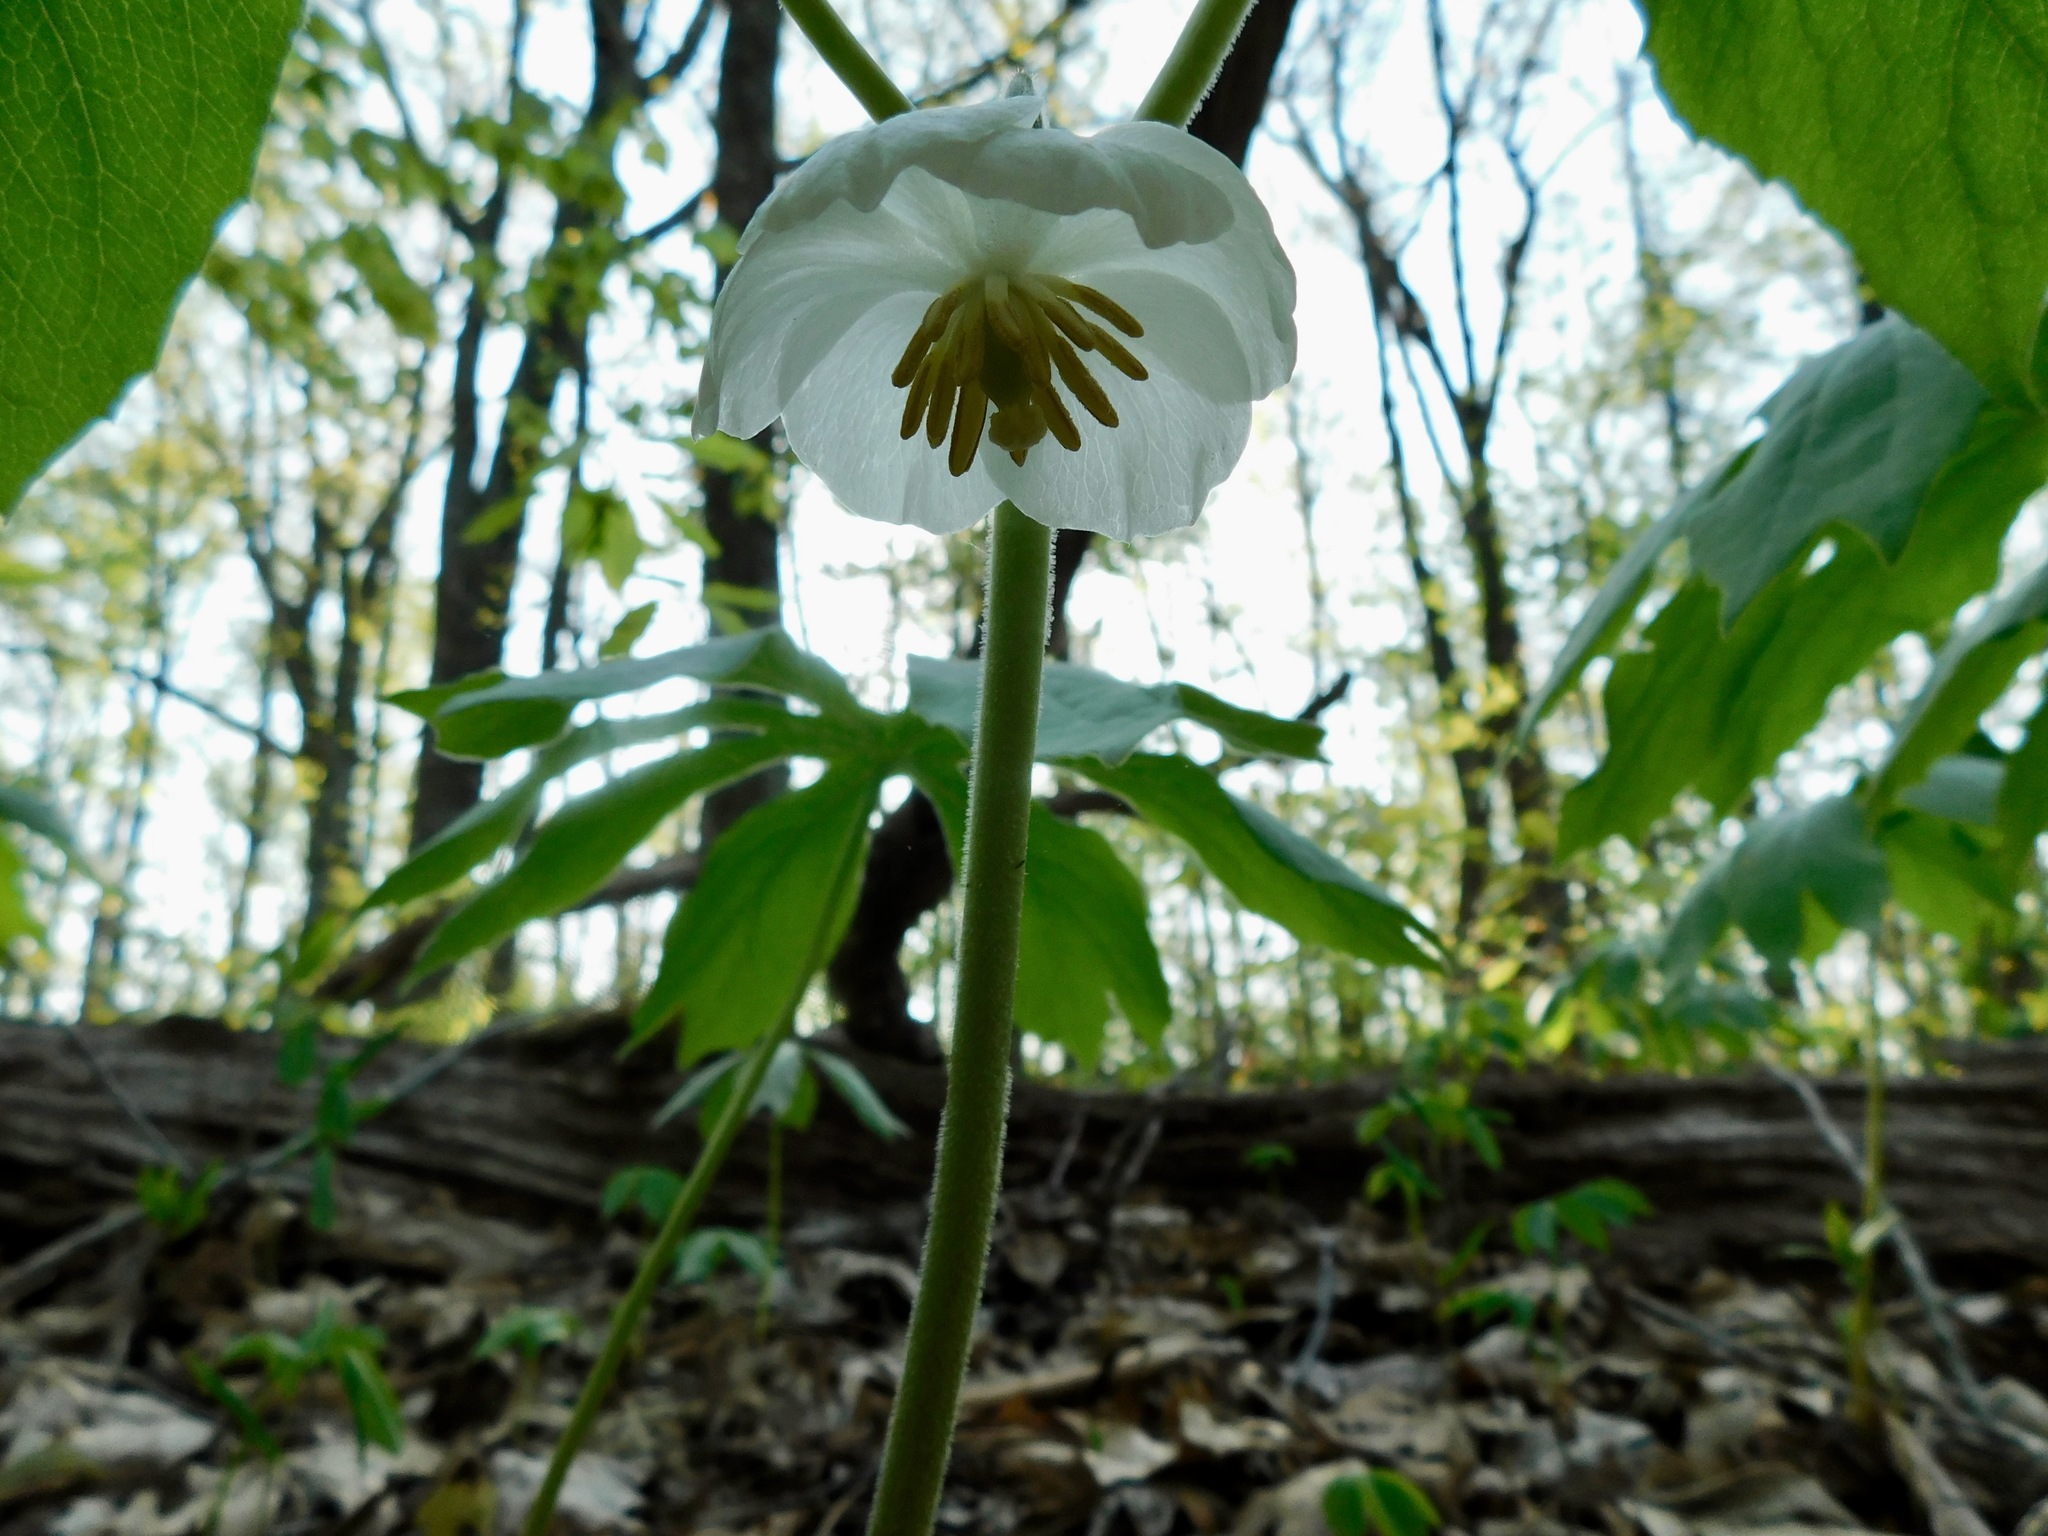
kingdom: Plantae
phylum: Tracheophyta
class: Magnoliopsida
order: Ranunculales
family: Berberidaceae
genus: Podophyllum
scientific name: Podophyllum peltatum
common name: Wild mandrake
